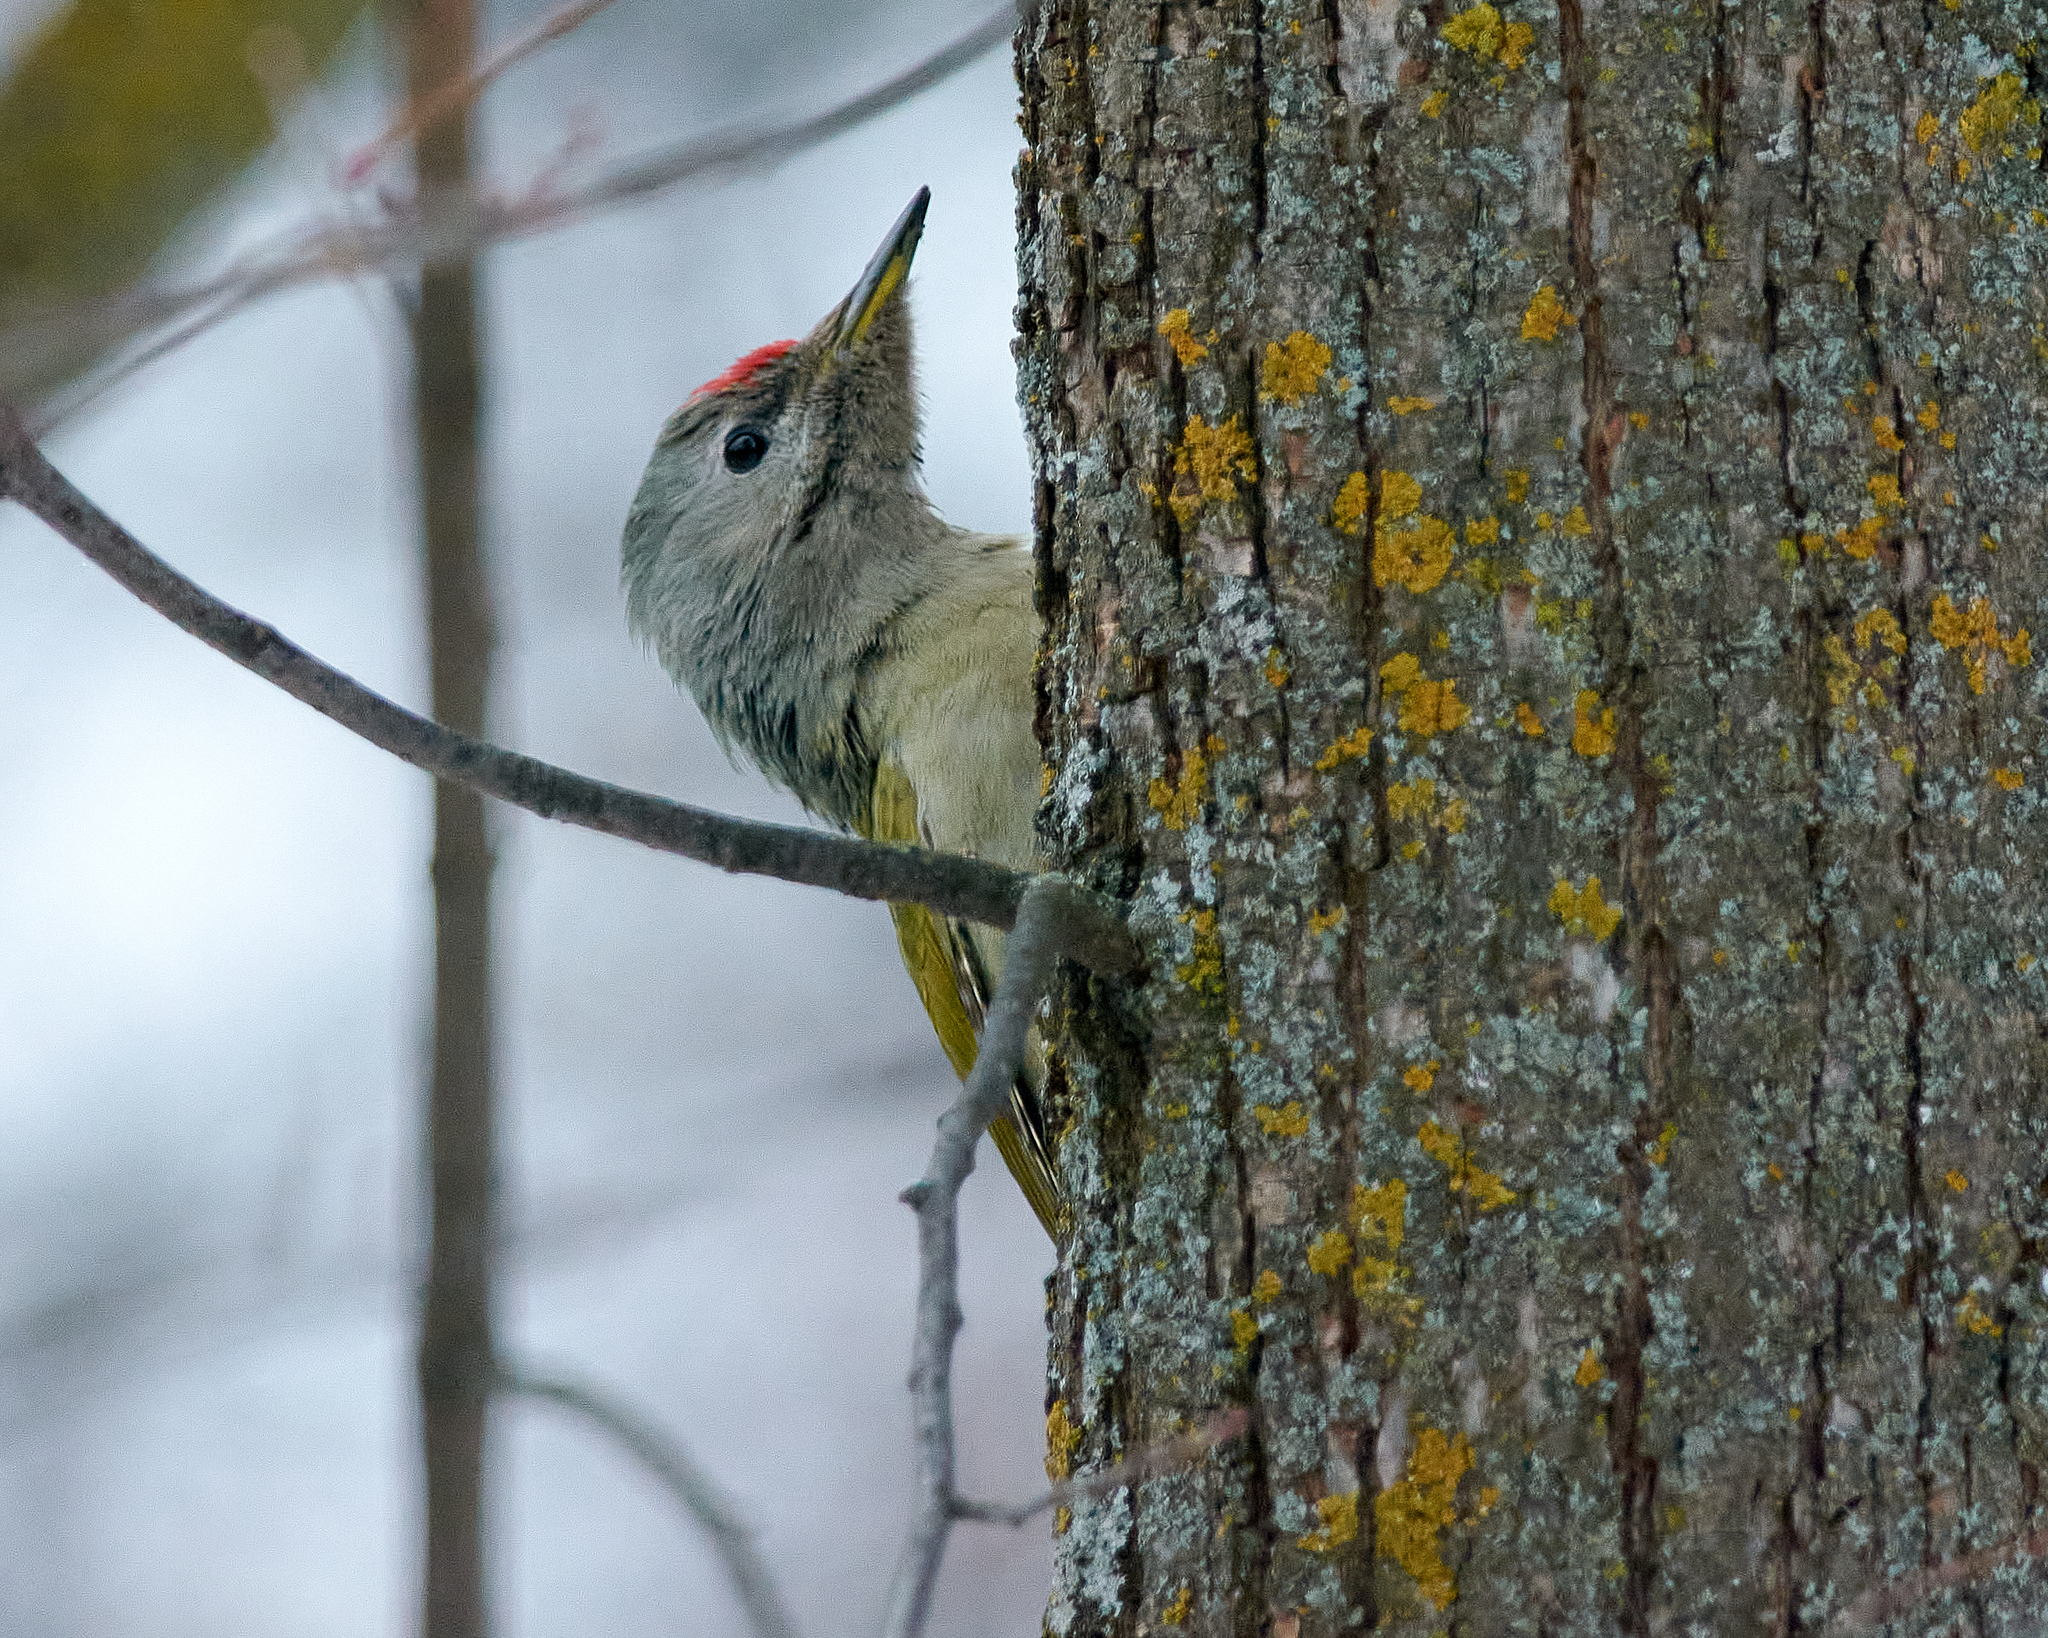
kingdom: Animalia
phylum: Chordata
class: Aves
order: Piciformes
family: Picidae
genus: Picus
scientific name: Picus canus
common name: Grey-headed woodpecker
